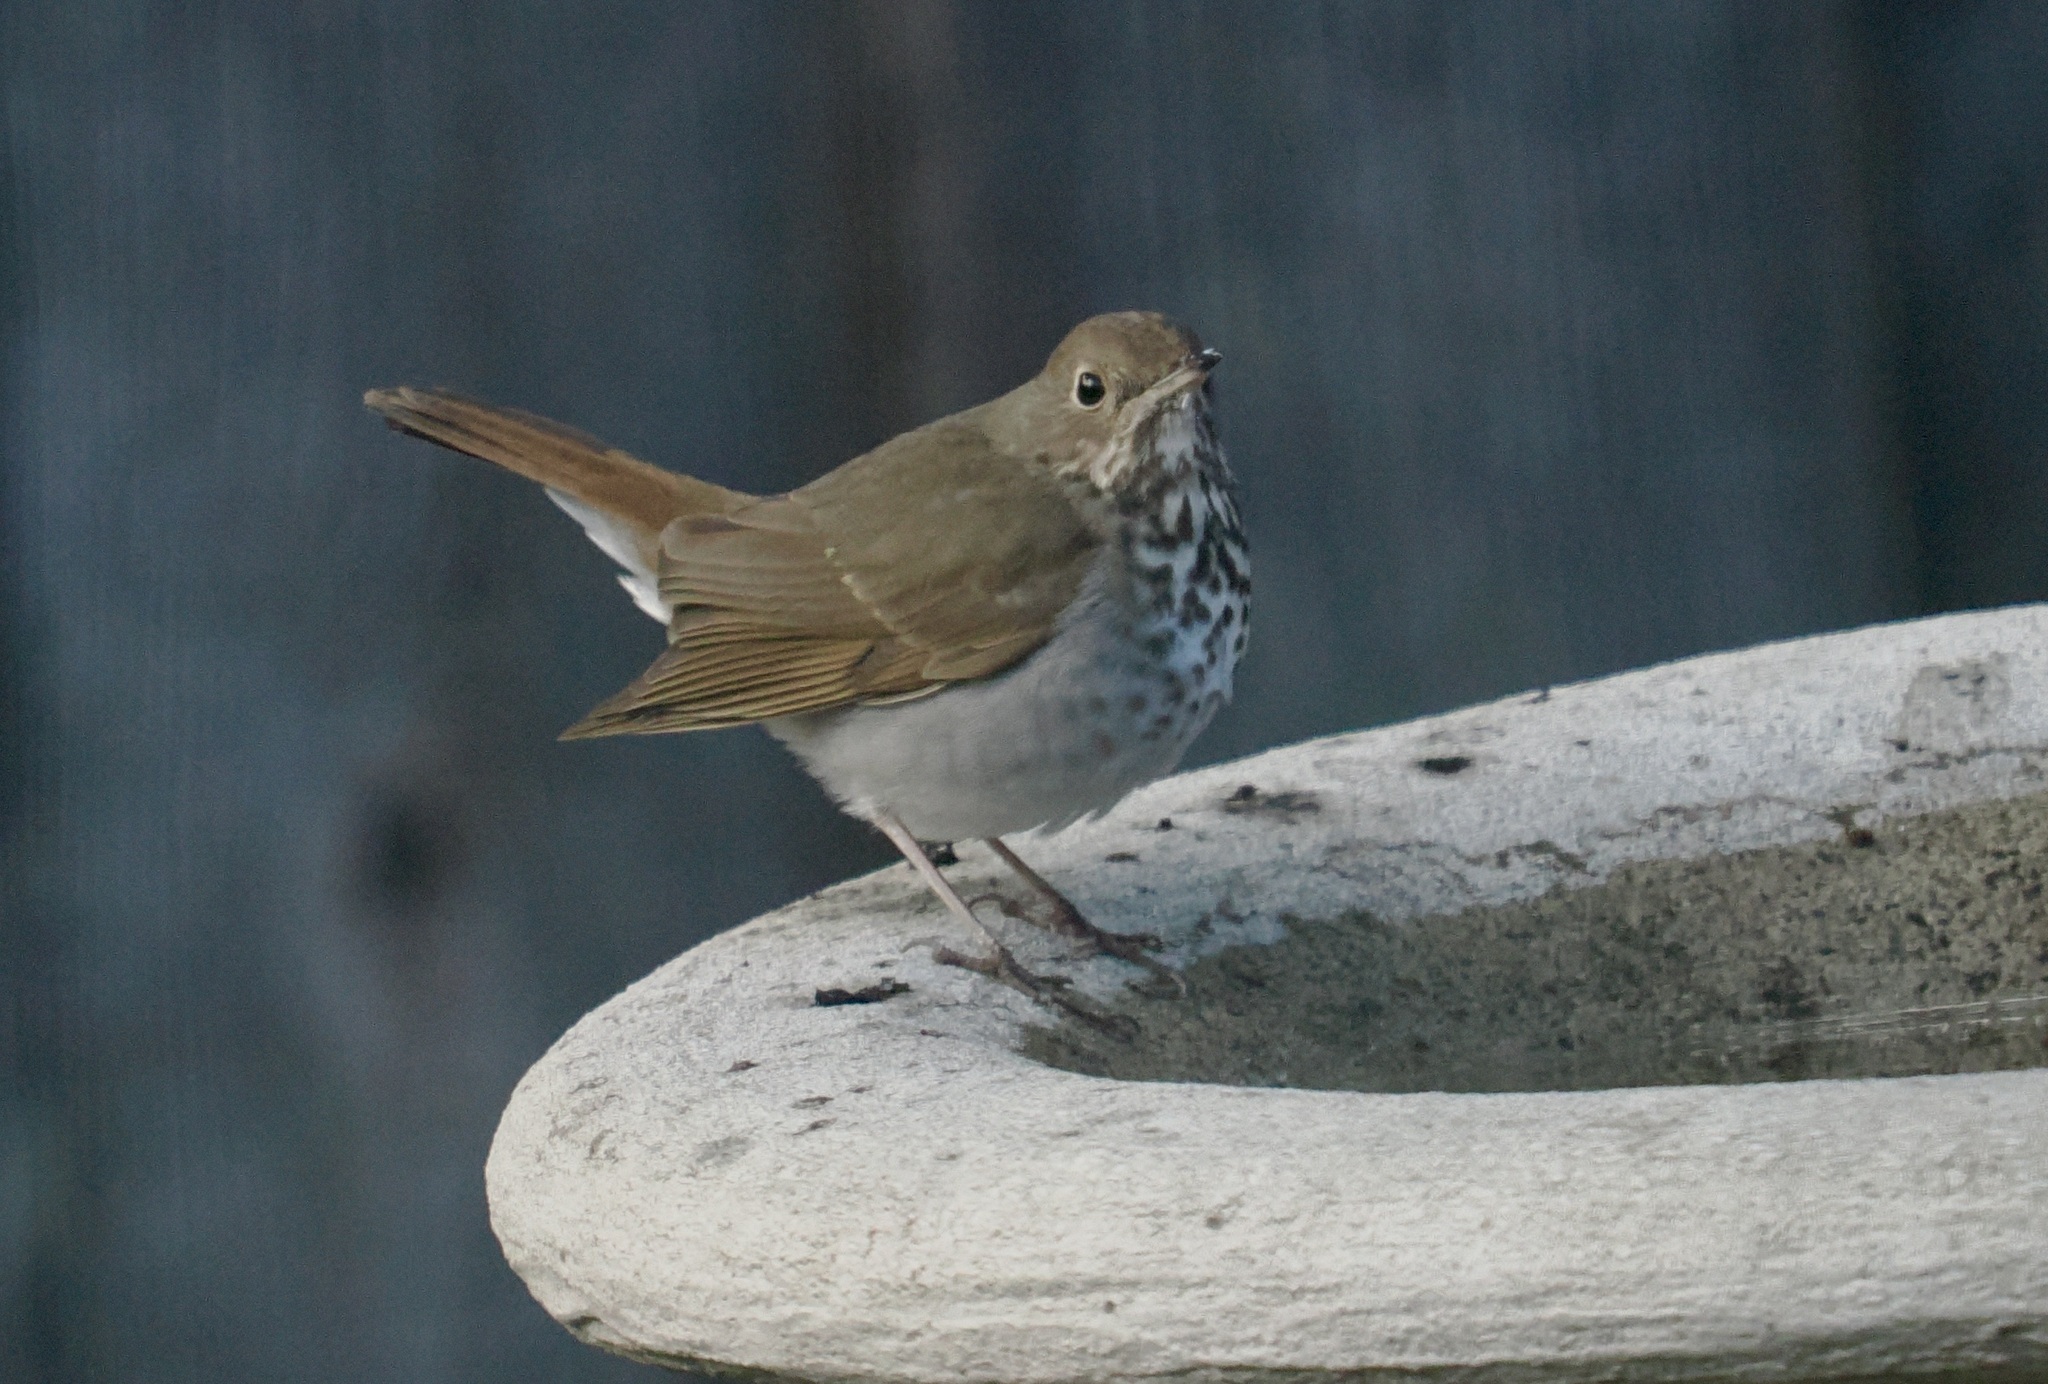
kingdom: Animalia
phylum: Chordata
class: Aves
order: Passeriformes
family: Turdidae
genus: Catharus
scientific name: Catharus guttatus
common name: Hermit thrush
